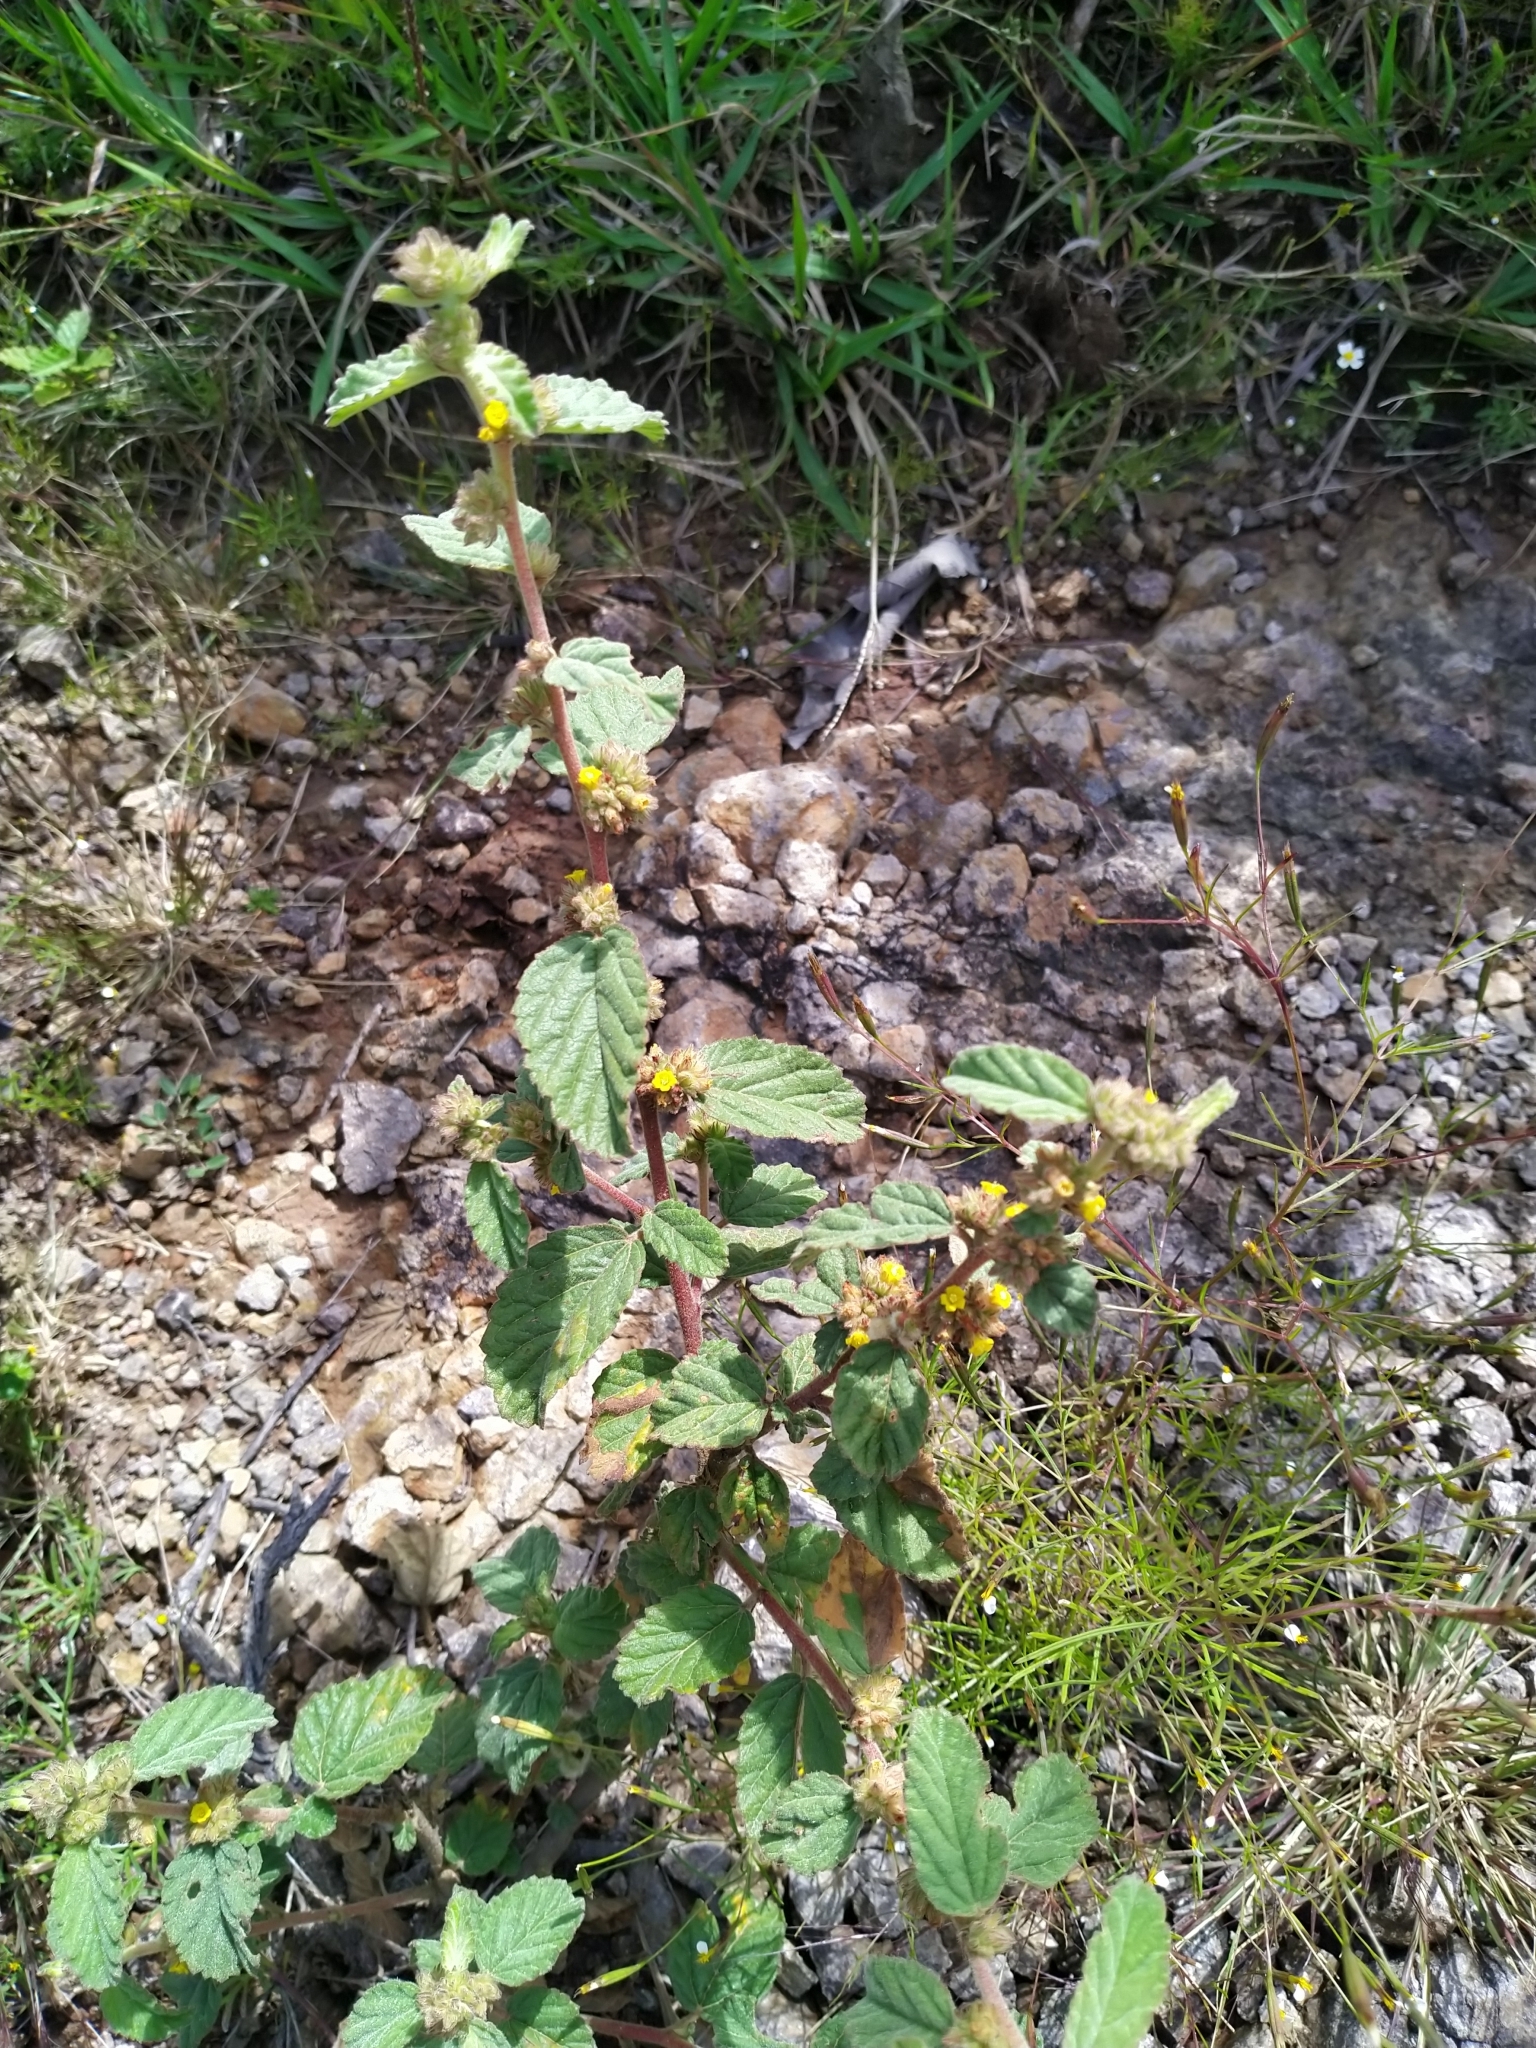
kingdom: Plantae
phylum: Tracheophyta
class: Magnoliopsida
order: Malvales
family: Malvaceae
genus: Waltheria
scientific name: Waltheria indica
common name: Leather-coat
